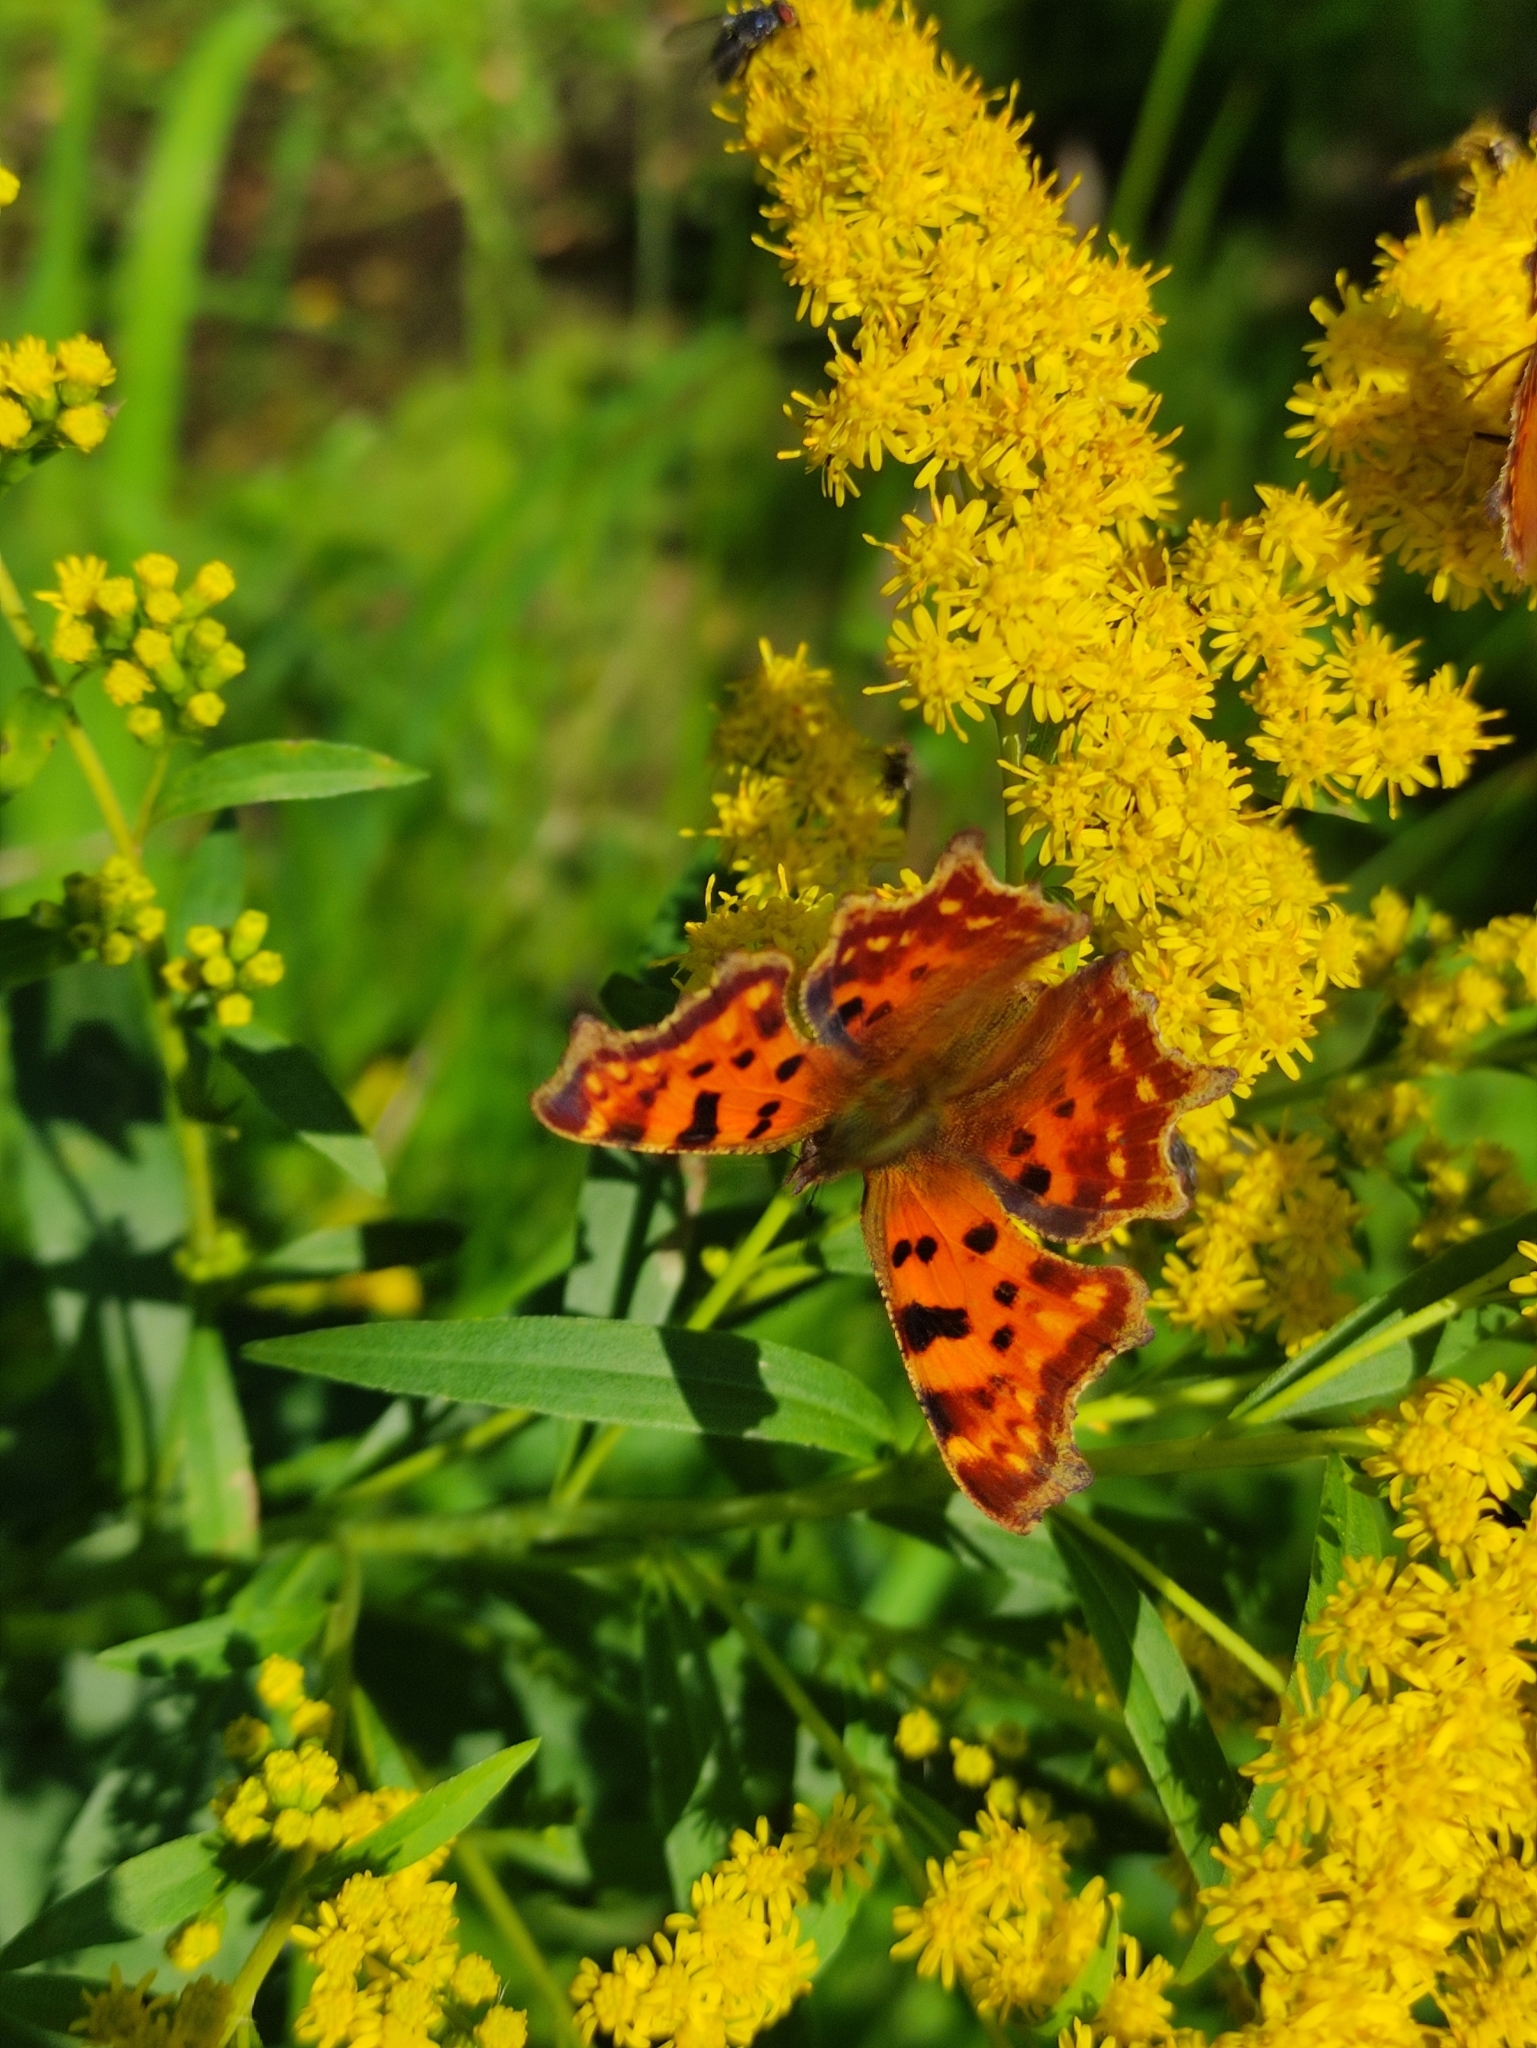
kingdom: Animalia
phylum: Arthropoda
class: Insecta
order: Lepidoptera
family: Nymphalidae
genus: Polygonia
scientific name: Polygonia c-album
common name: Comma
